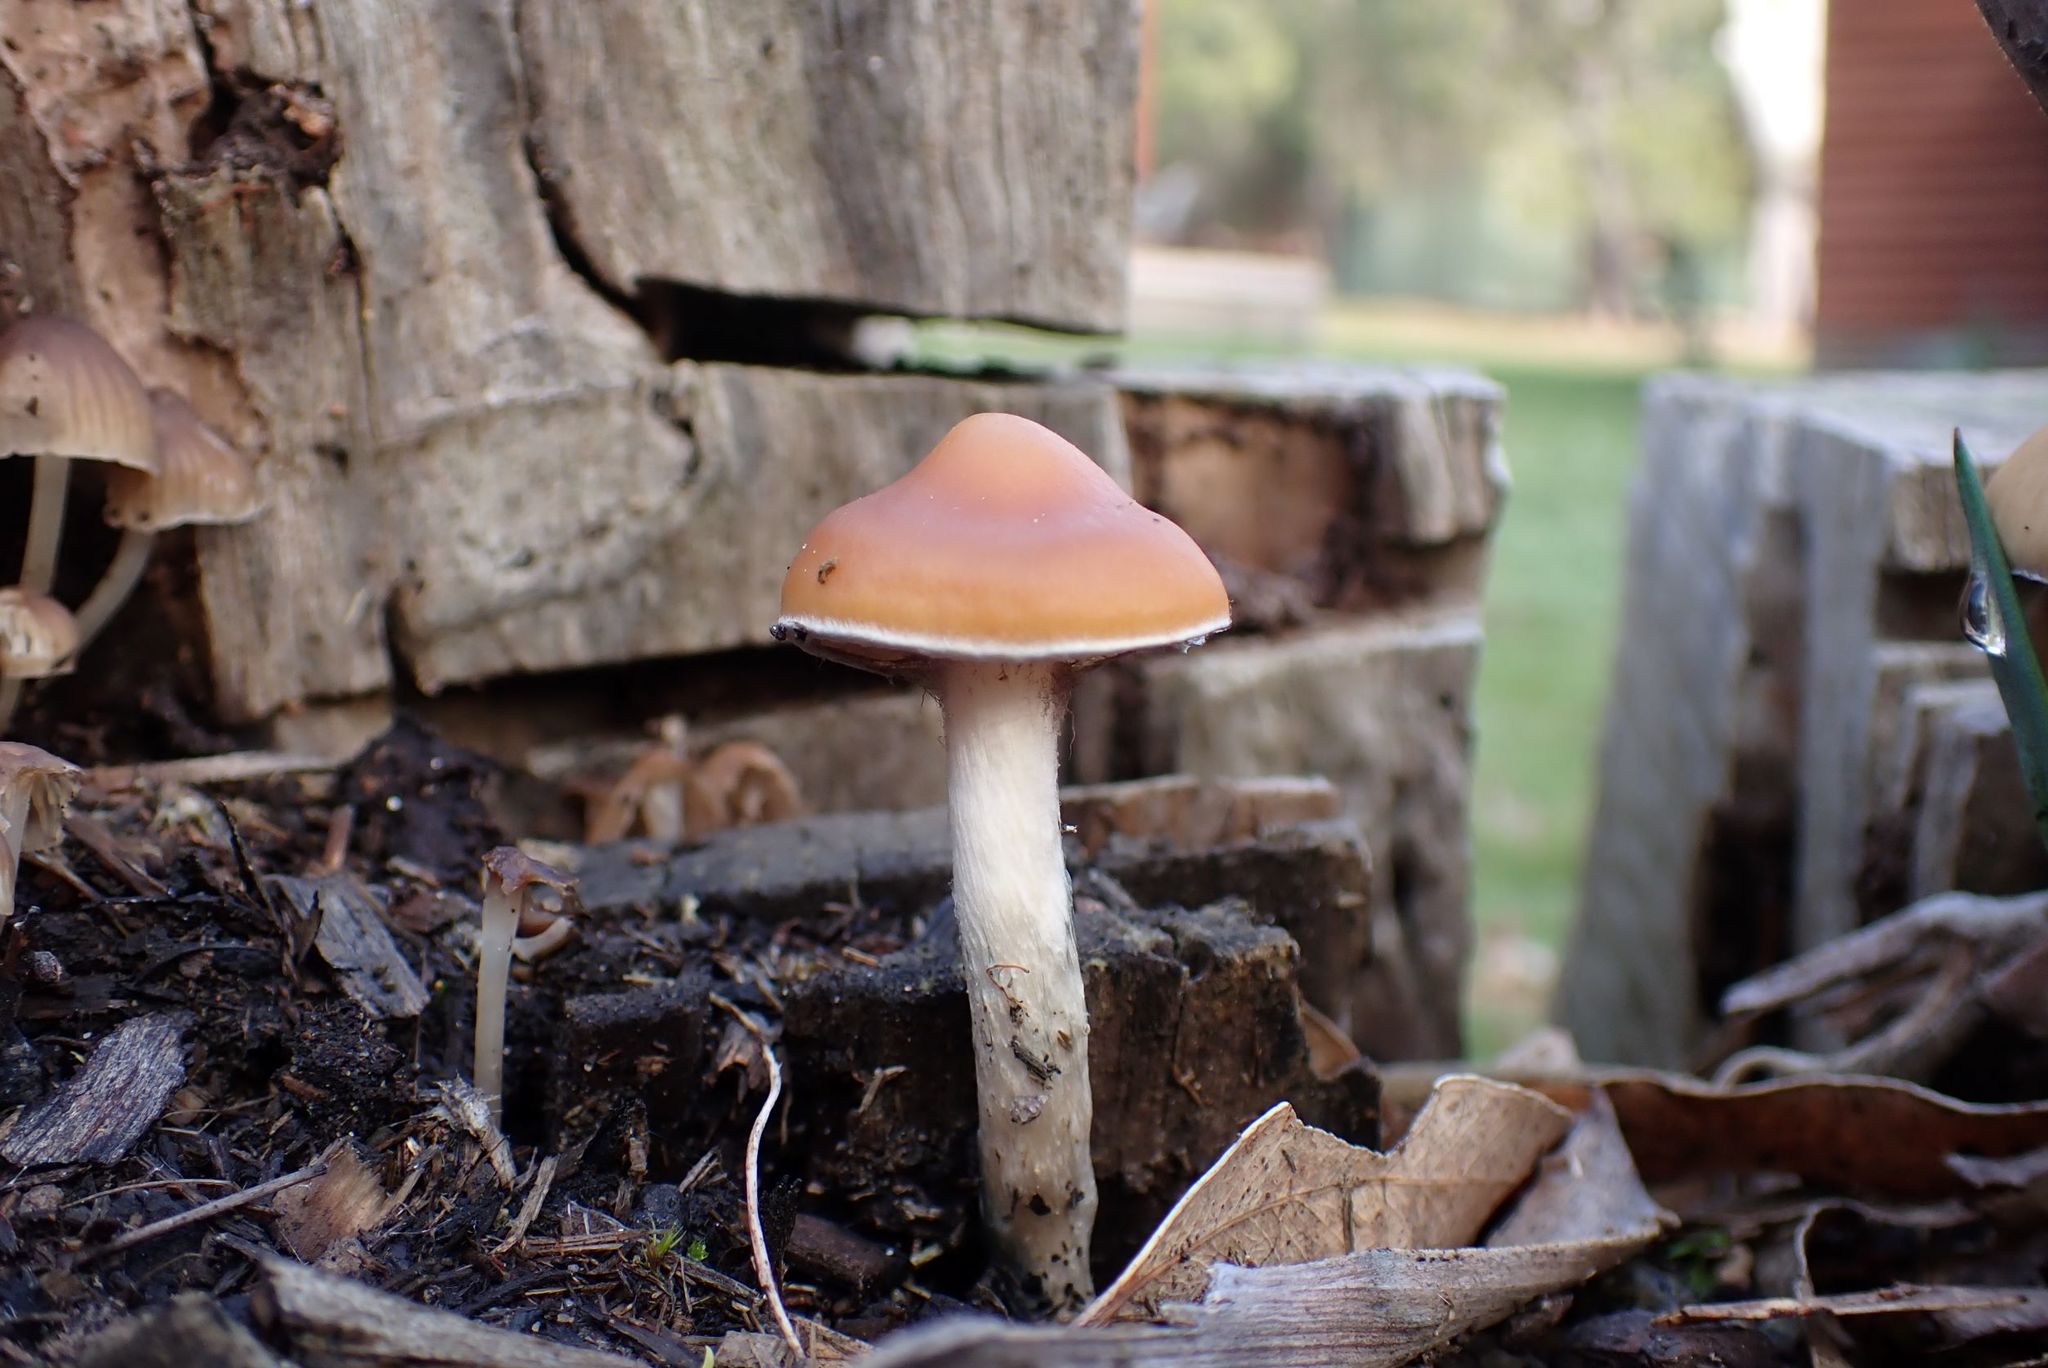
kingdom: Fungi
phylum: Basidiomycota
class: Agaricomycetes
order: Agaricales
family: Hymenogastraceae
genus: Psilocybe
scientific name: Psilocybe subaeruginosa
